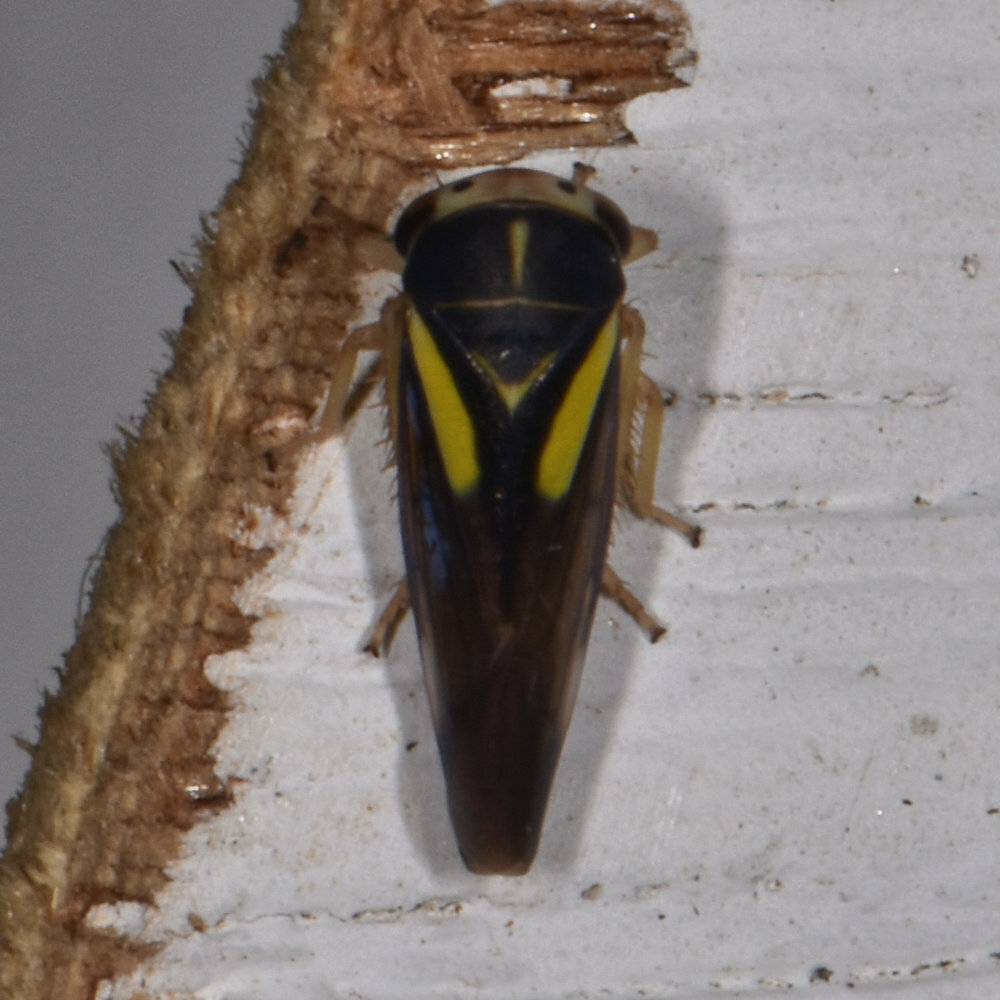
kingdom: Animalia
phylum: Arthropoda
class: Insecta
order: Hemiptera
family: Cicadellidae
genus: Balcanocerus
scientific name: Balcanocerus provancheri
